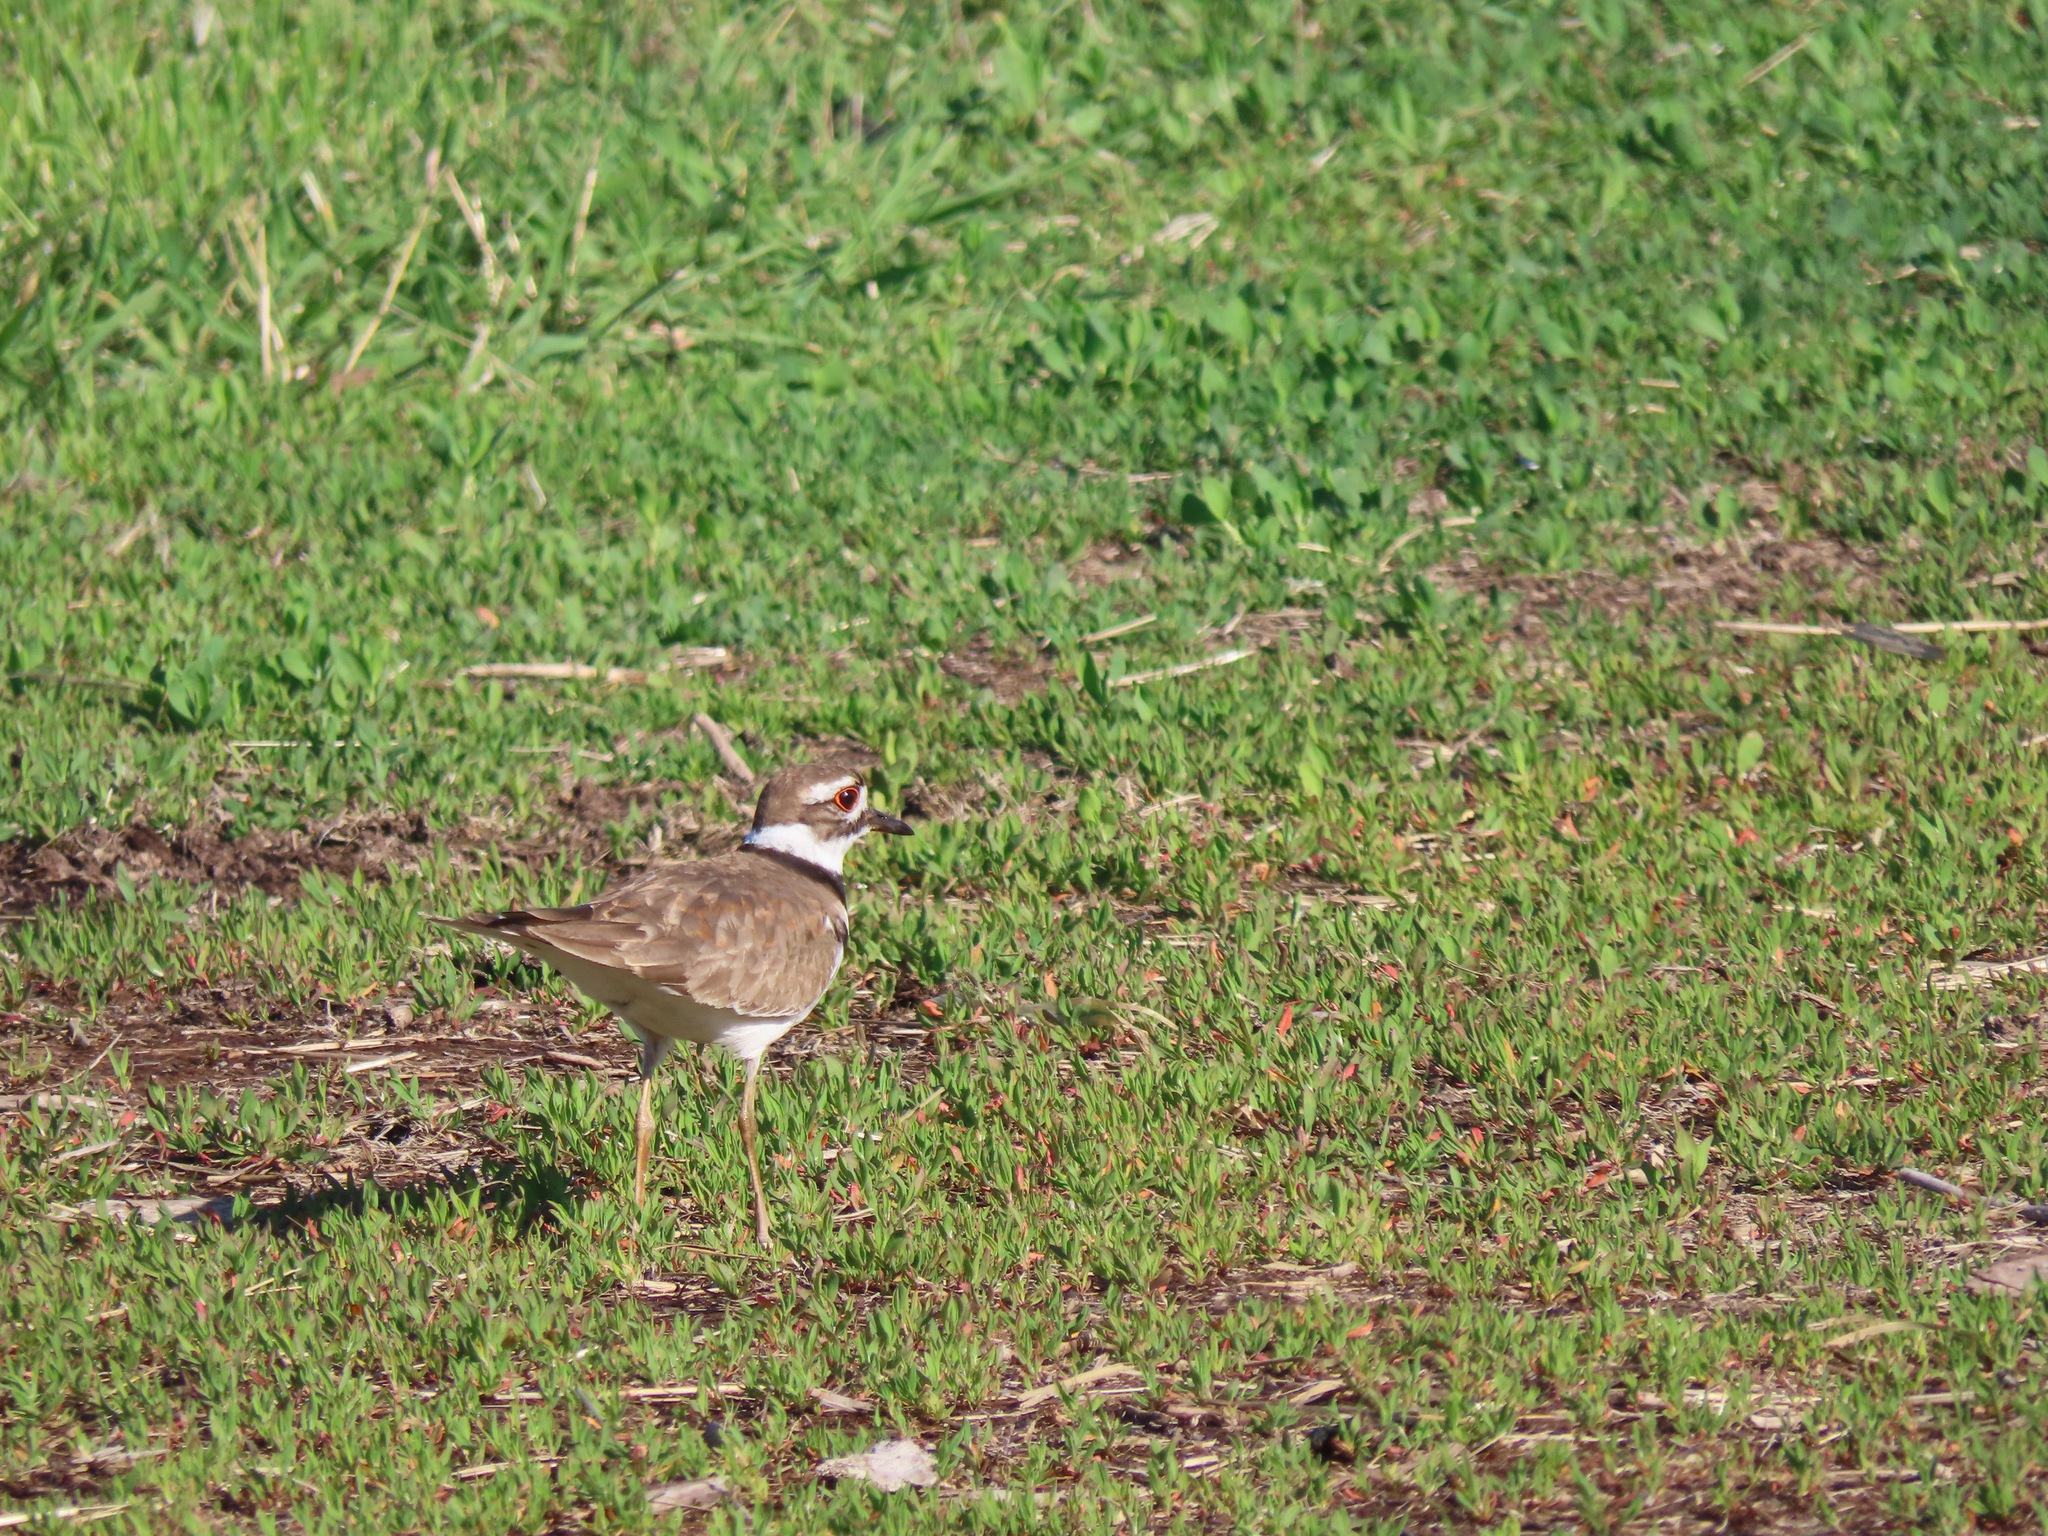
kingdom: Animalia
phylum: Chordata
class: Aves
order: Charadriiformes
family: Charadriidae
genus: Charadrius
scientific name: Charadrius vociferus
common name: Killdeer
